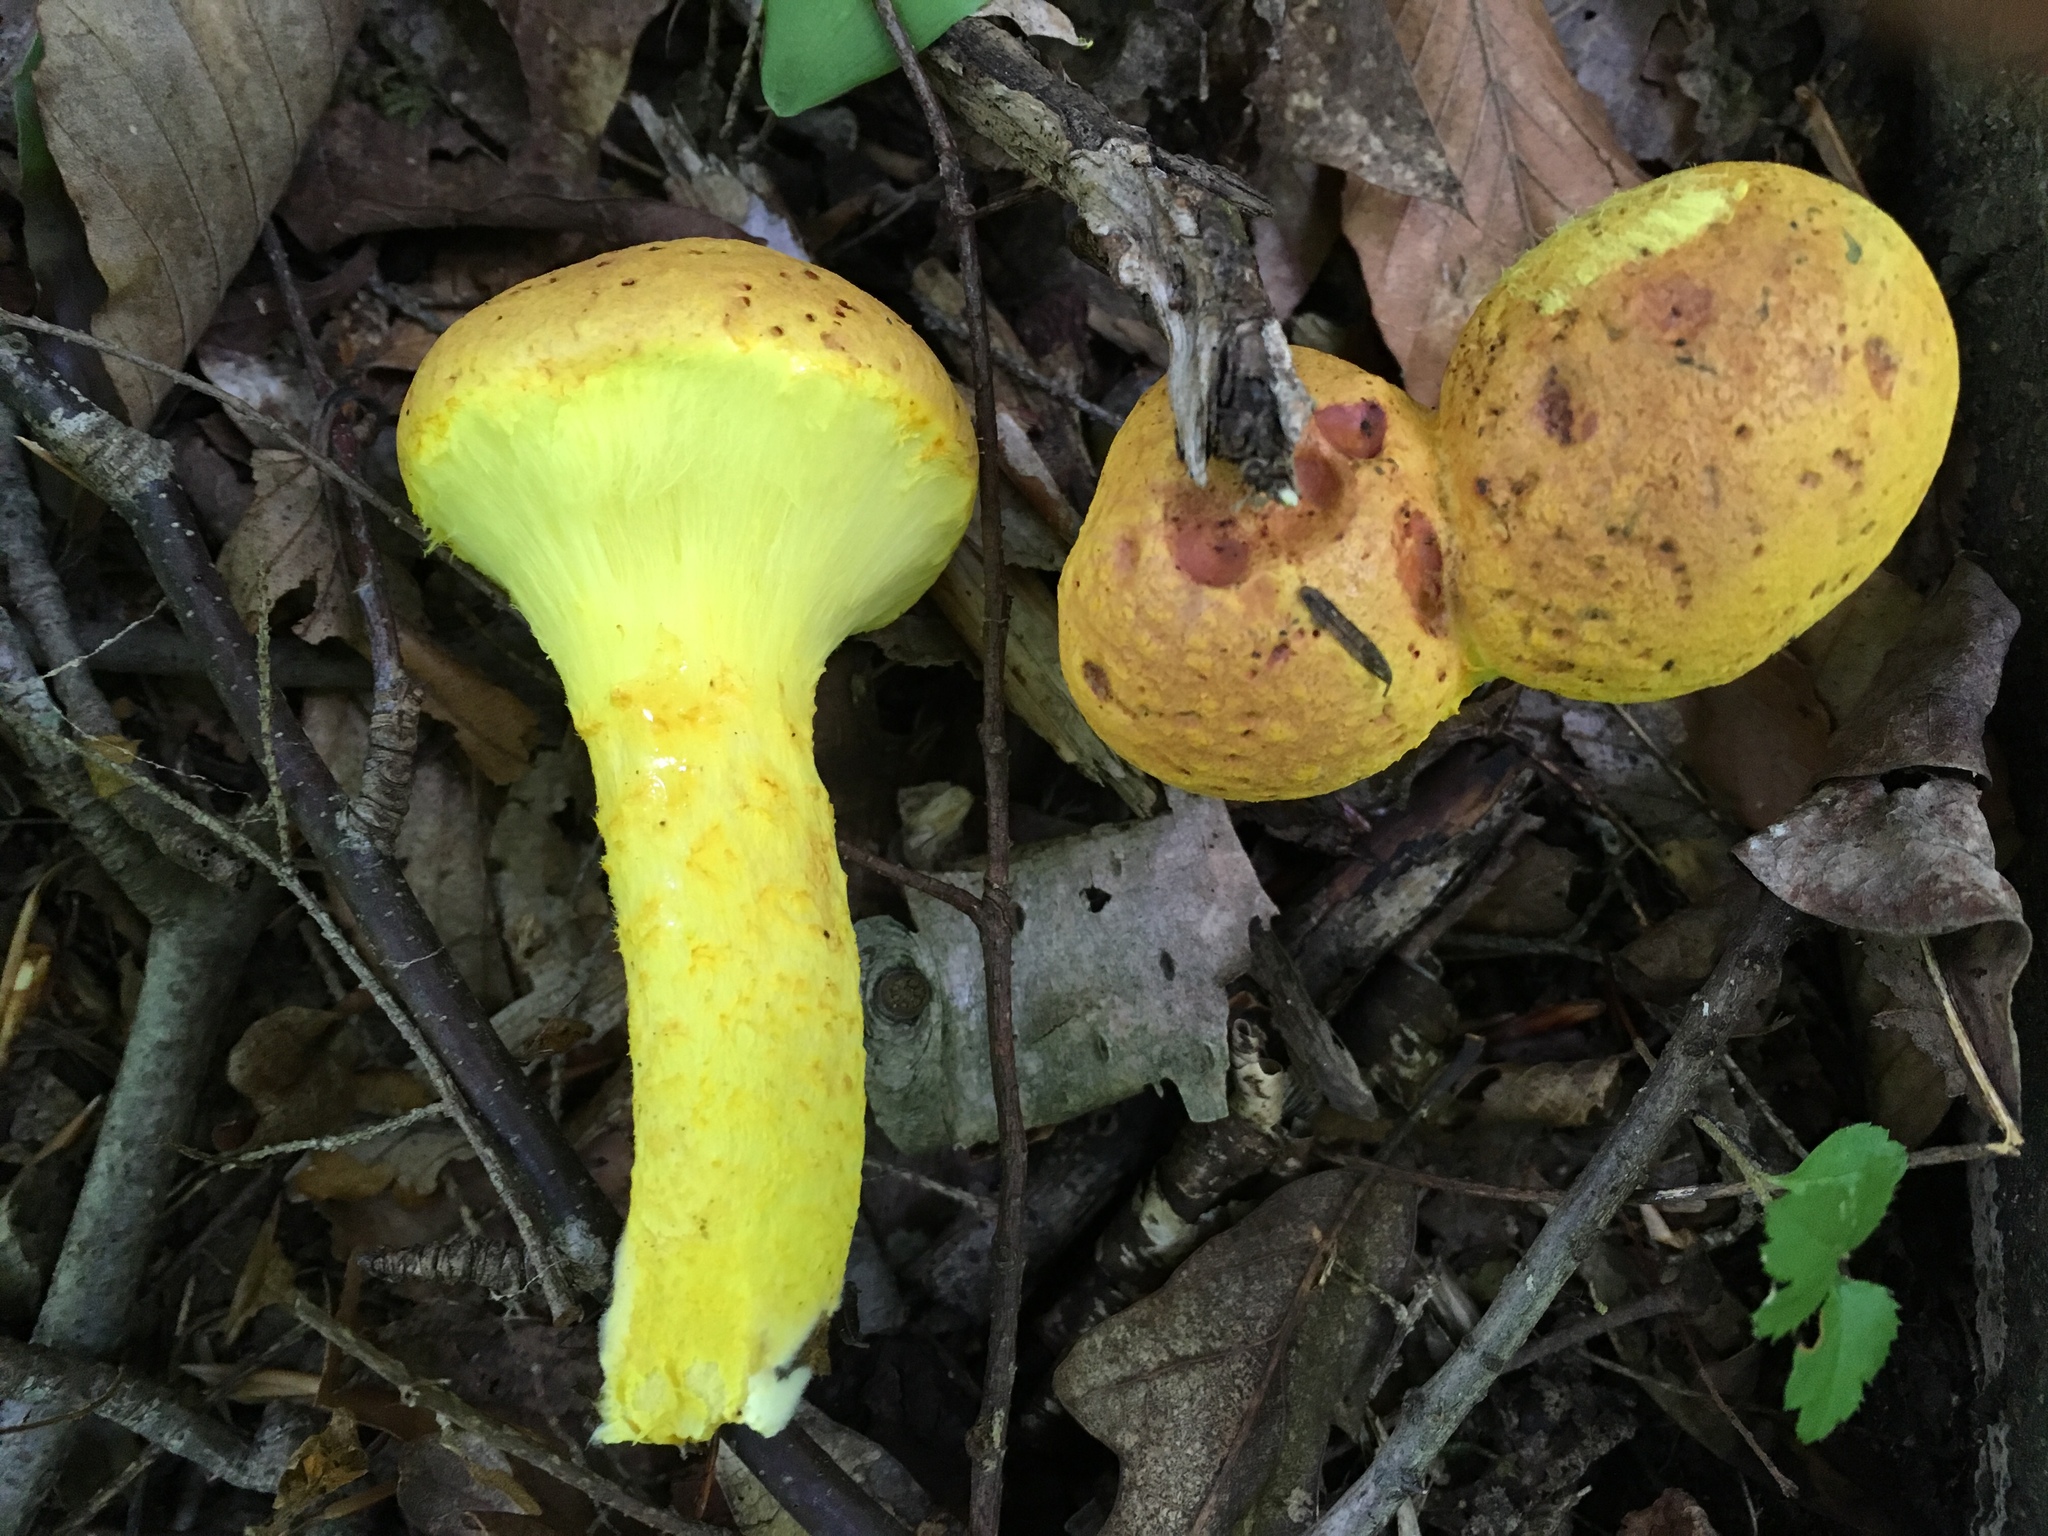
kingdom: Fungi
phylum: Basidiomycota
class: Agaricomycetes
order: Boletales
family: Boletaceae
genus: Pulveroboletus
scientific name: Pulveroboletus ravenelii
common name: Powdery sulfur bolete
